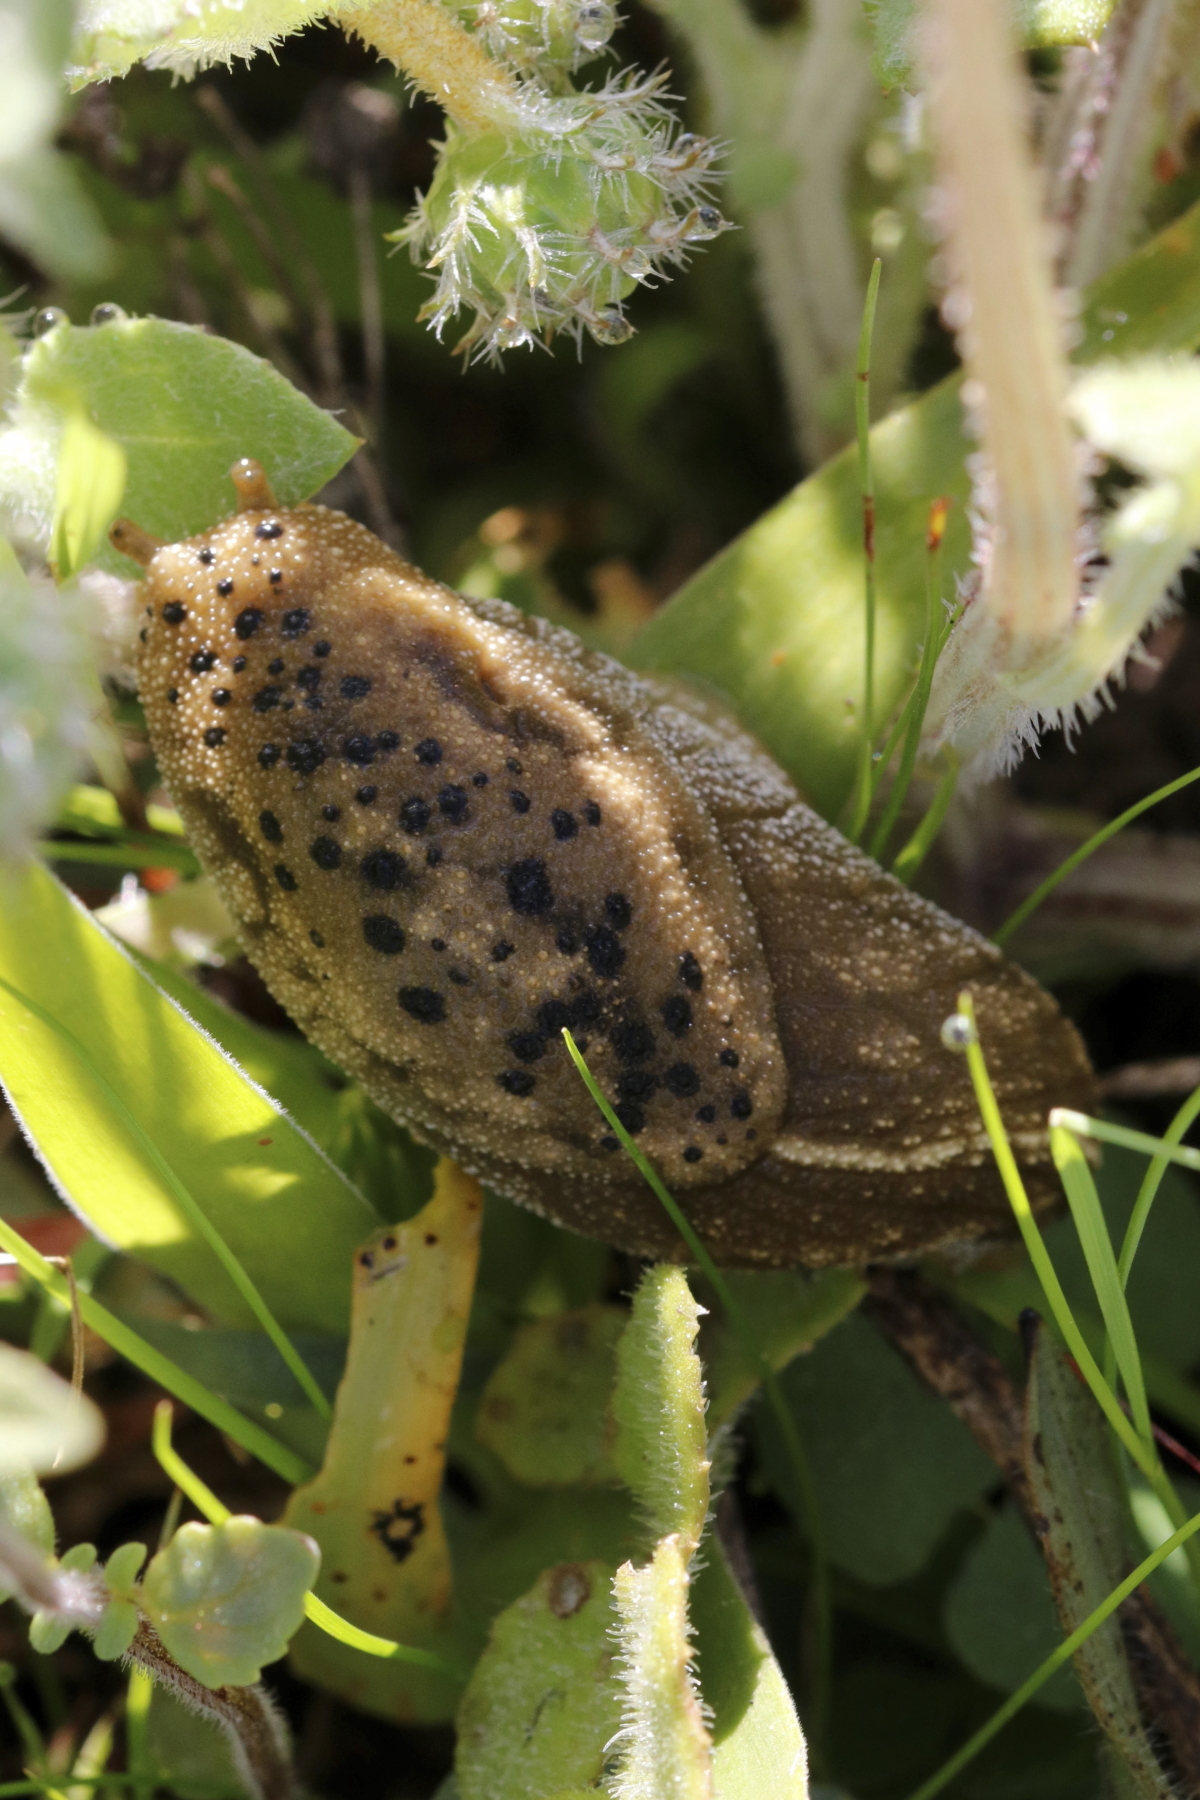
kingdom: Animalia
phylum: Mollusca
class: Gastropoda
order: Stylommatophora
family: Oopeltidae
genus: Oopelta
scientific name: Oopelta nigropunctata
